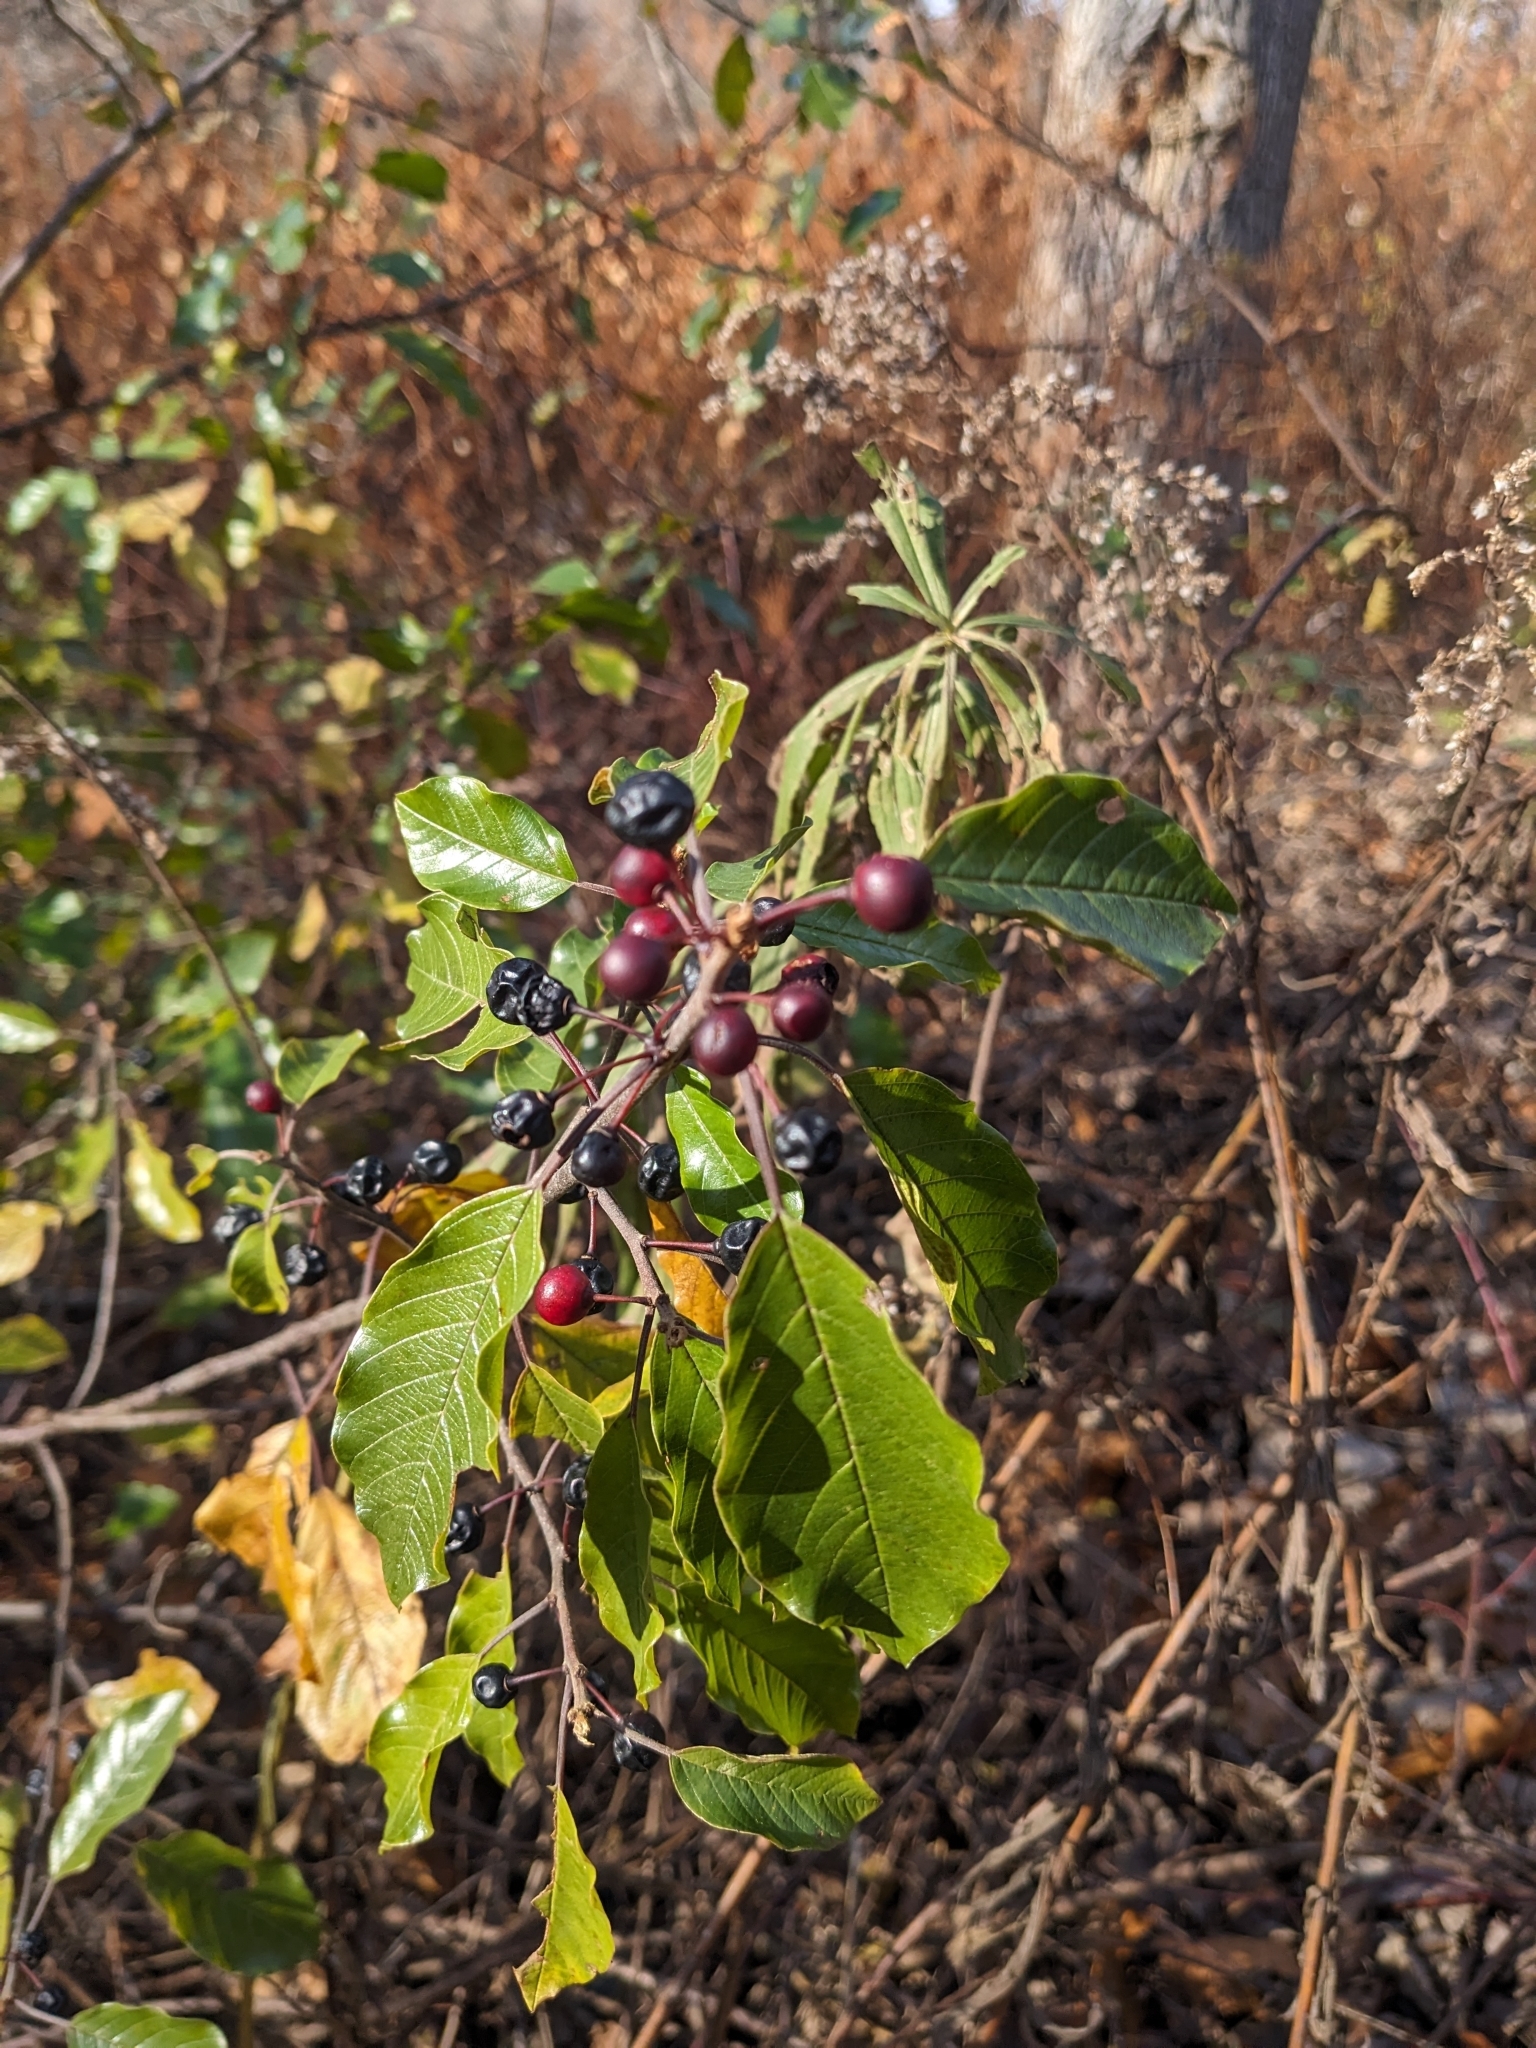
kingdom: Plantae
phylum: Tracheophyta
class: Magnoliopsida
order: Rosales
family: Rhamnaceae
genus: Frangula
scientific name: Frangula alnus
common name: Alder buckthorn
